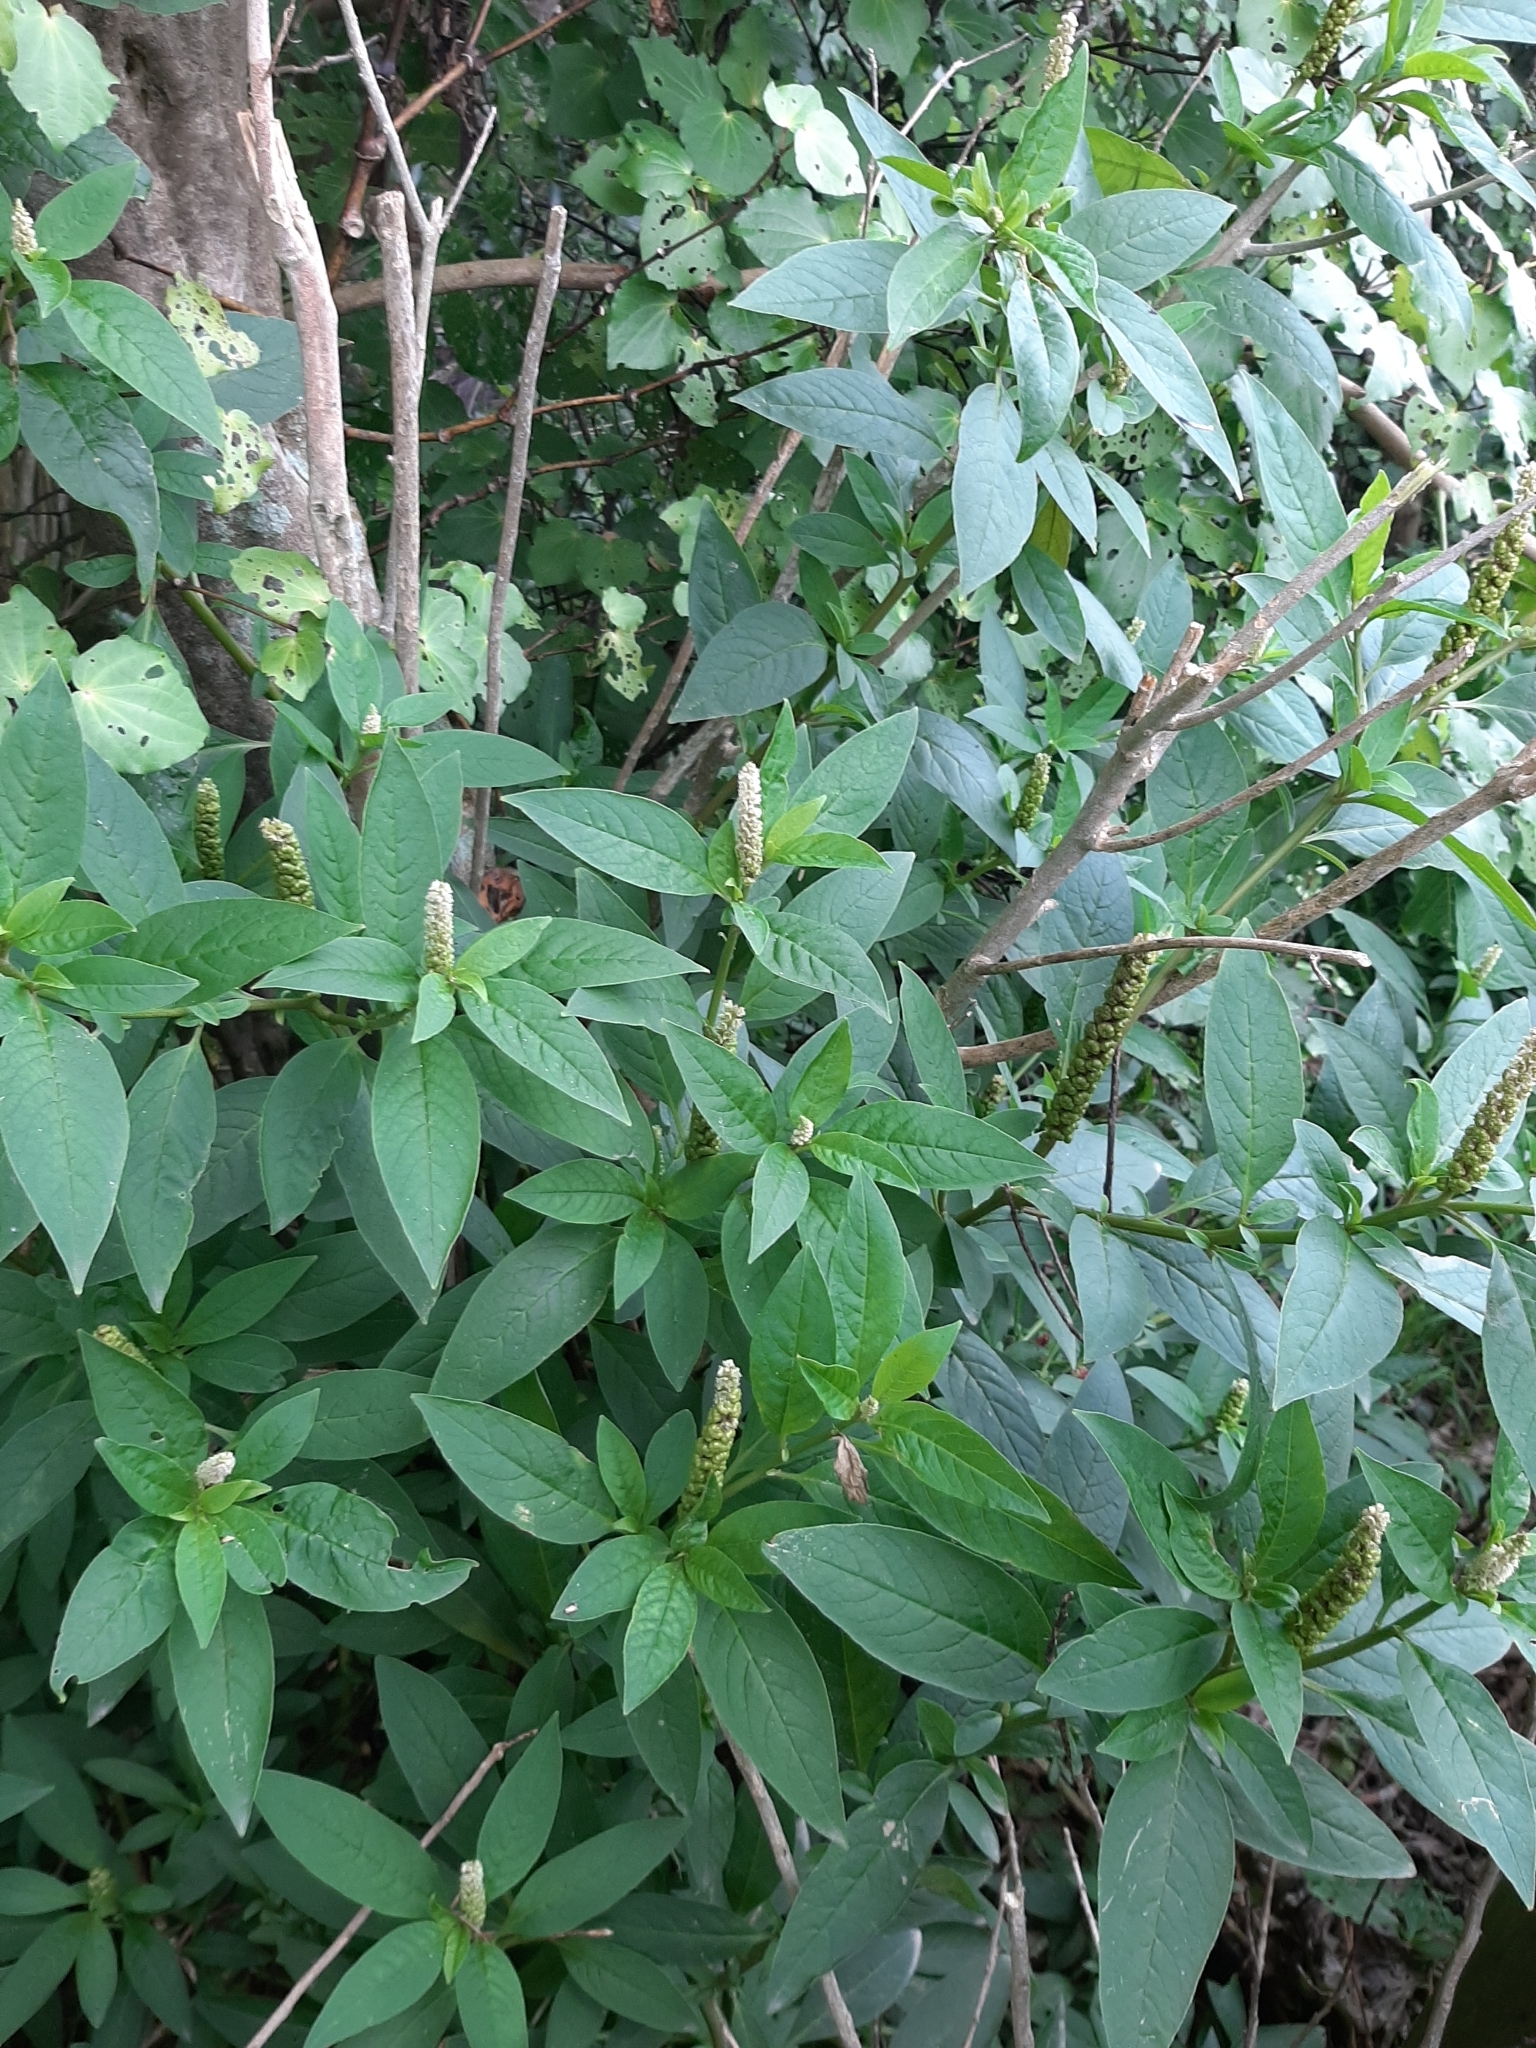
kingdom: Plantae
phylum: Tracheophyta
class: Magnoliopsida
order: Caryophyllales
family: Phytolaccaceae
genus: Phytolacca
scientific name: Phytolacca icosandra
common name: Button pokeweed
